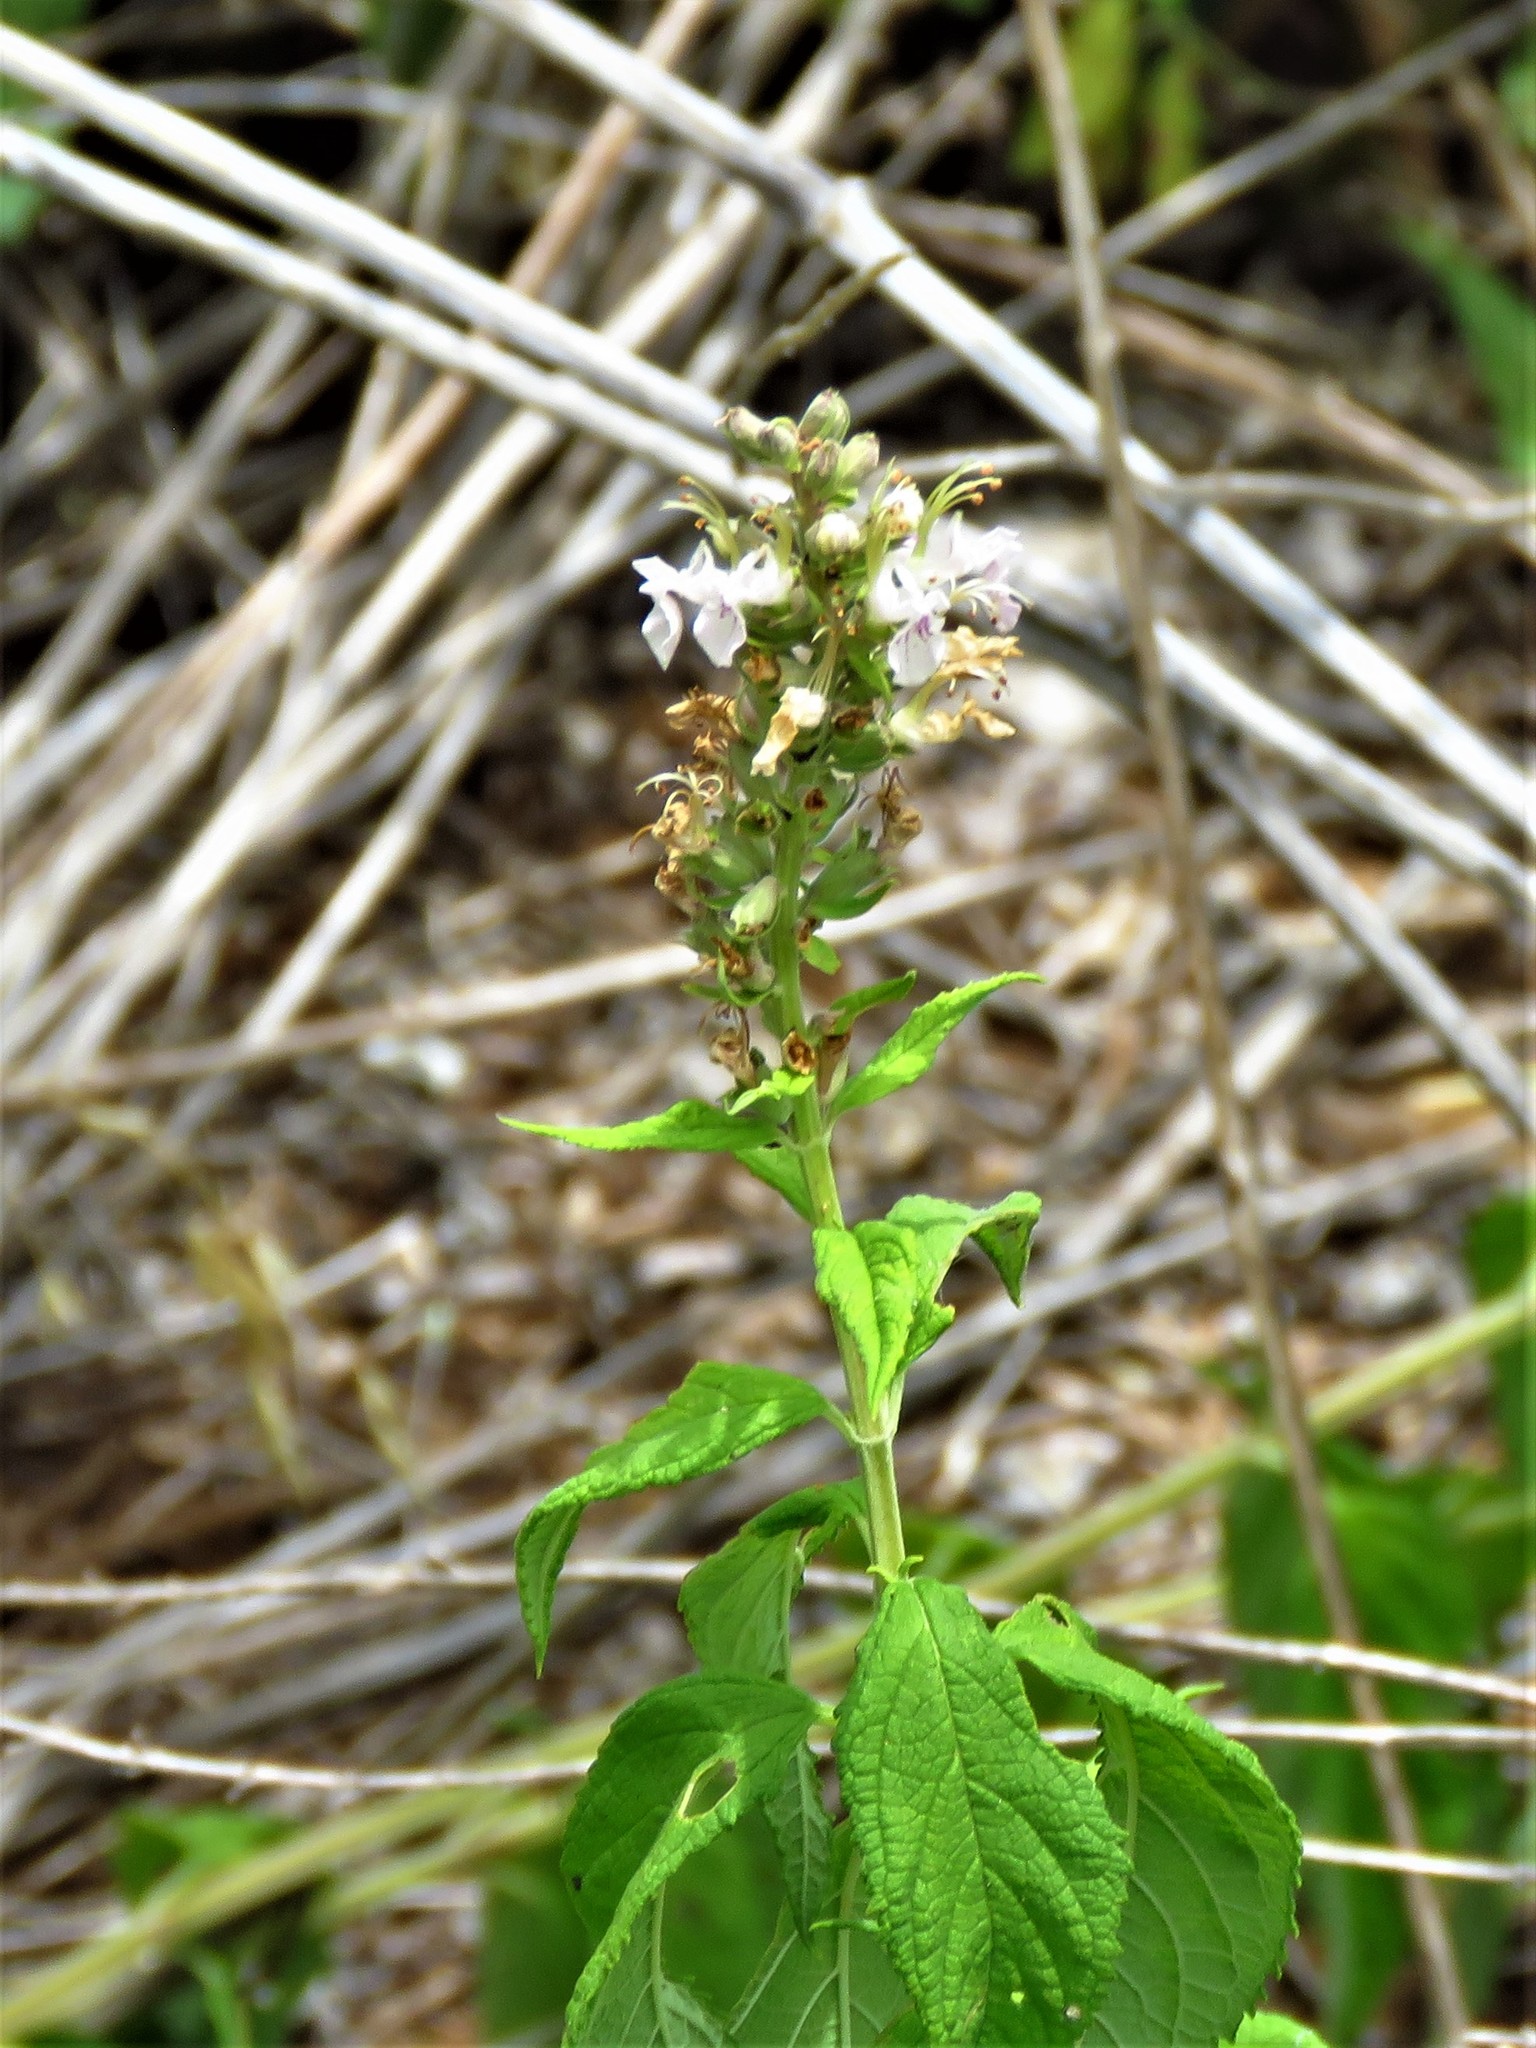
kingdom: Plantae
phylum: Tracheophyta
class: Magnoliopsida
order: Lamiales
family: Lamiaceae
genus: Teucrium
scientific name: Teucrium canadense
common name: American germander
